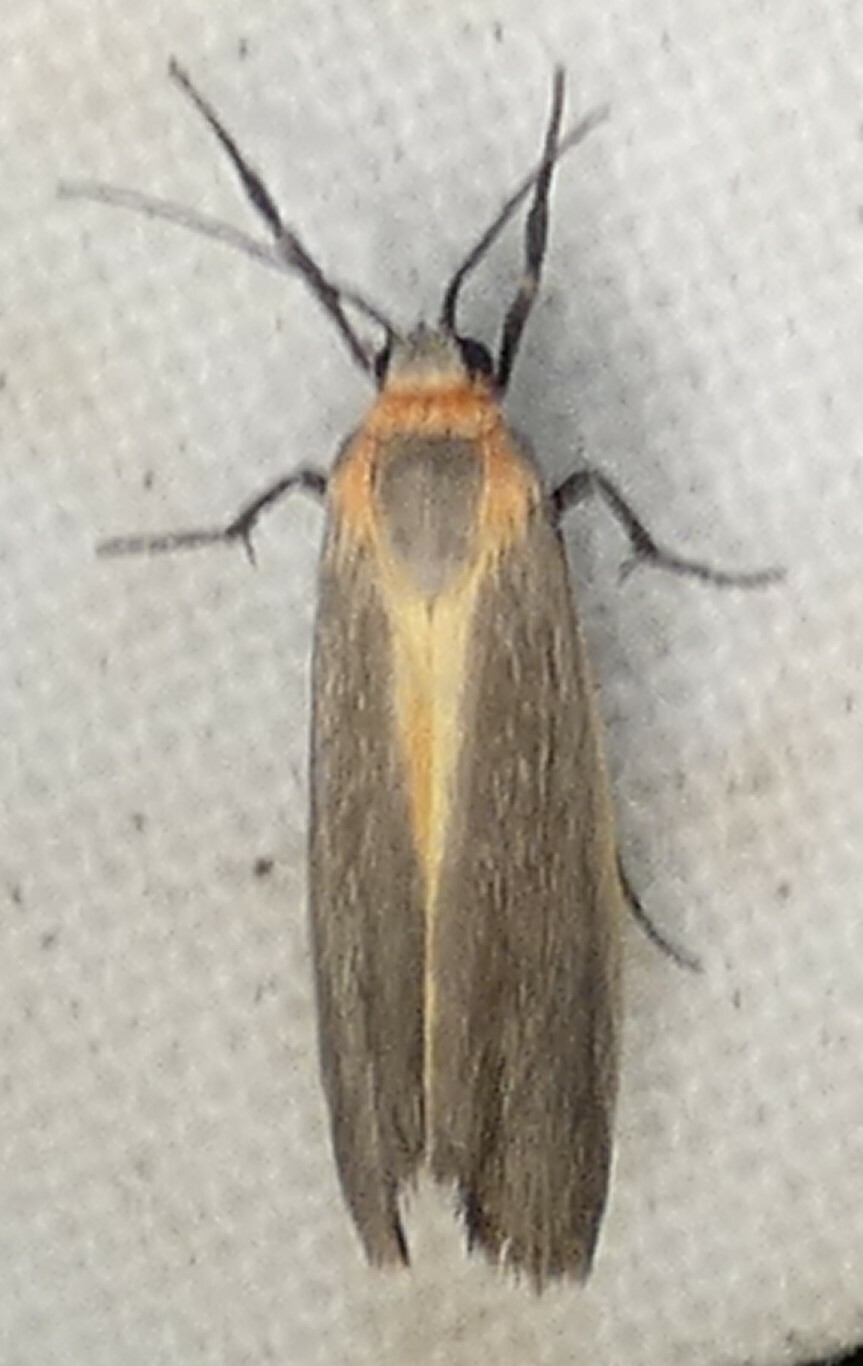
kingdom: Animalia
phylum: Arthropoda
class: Insecta
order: Lepidoptera
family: Erebidae
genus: Cisthene
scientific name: Cisthene plumbea
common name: Lead colored lichen moth
